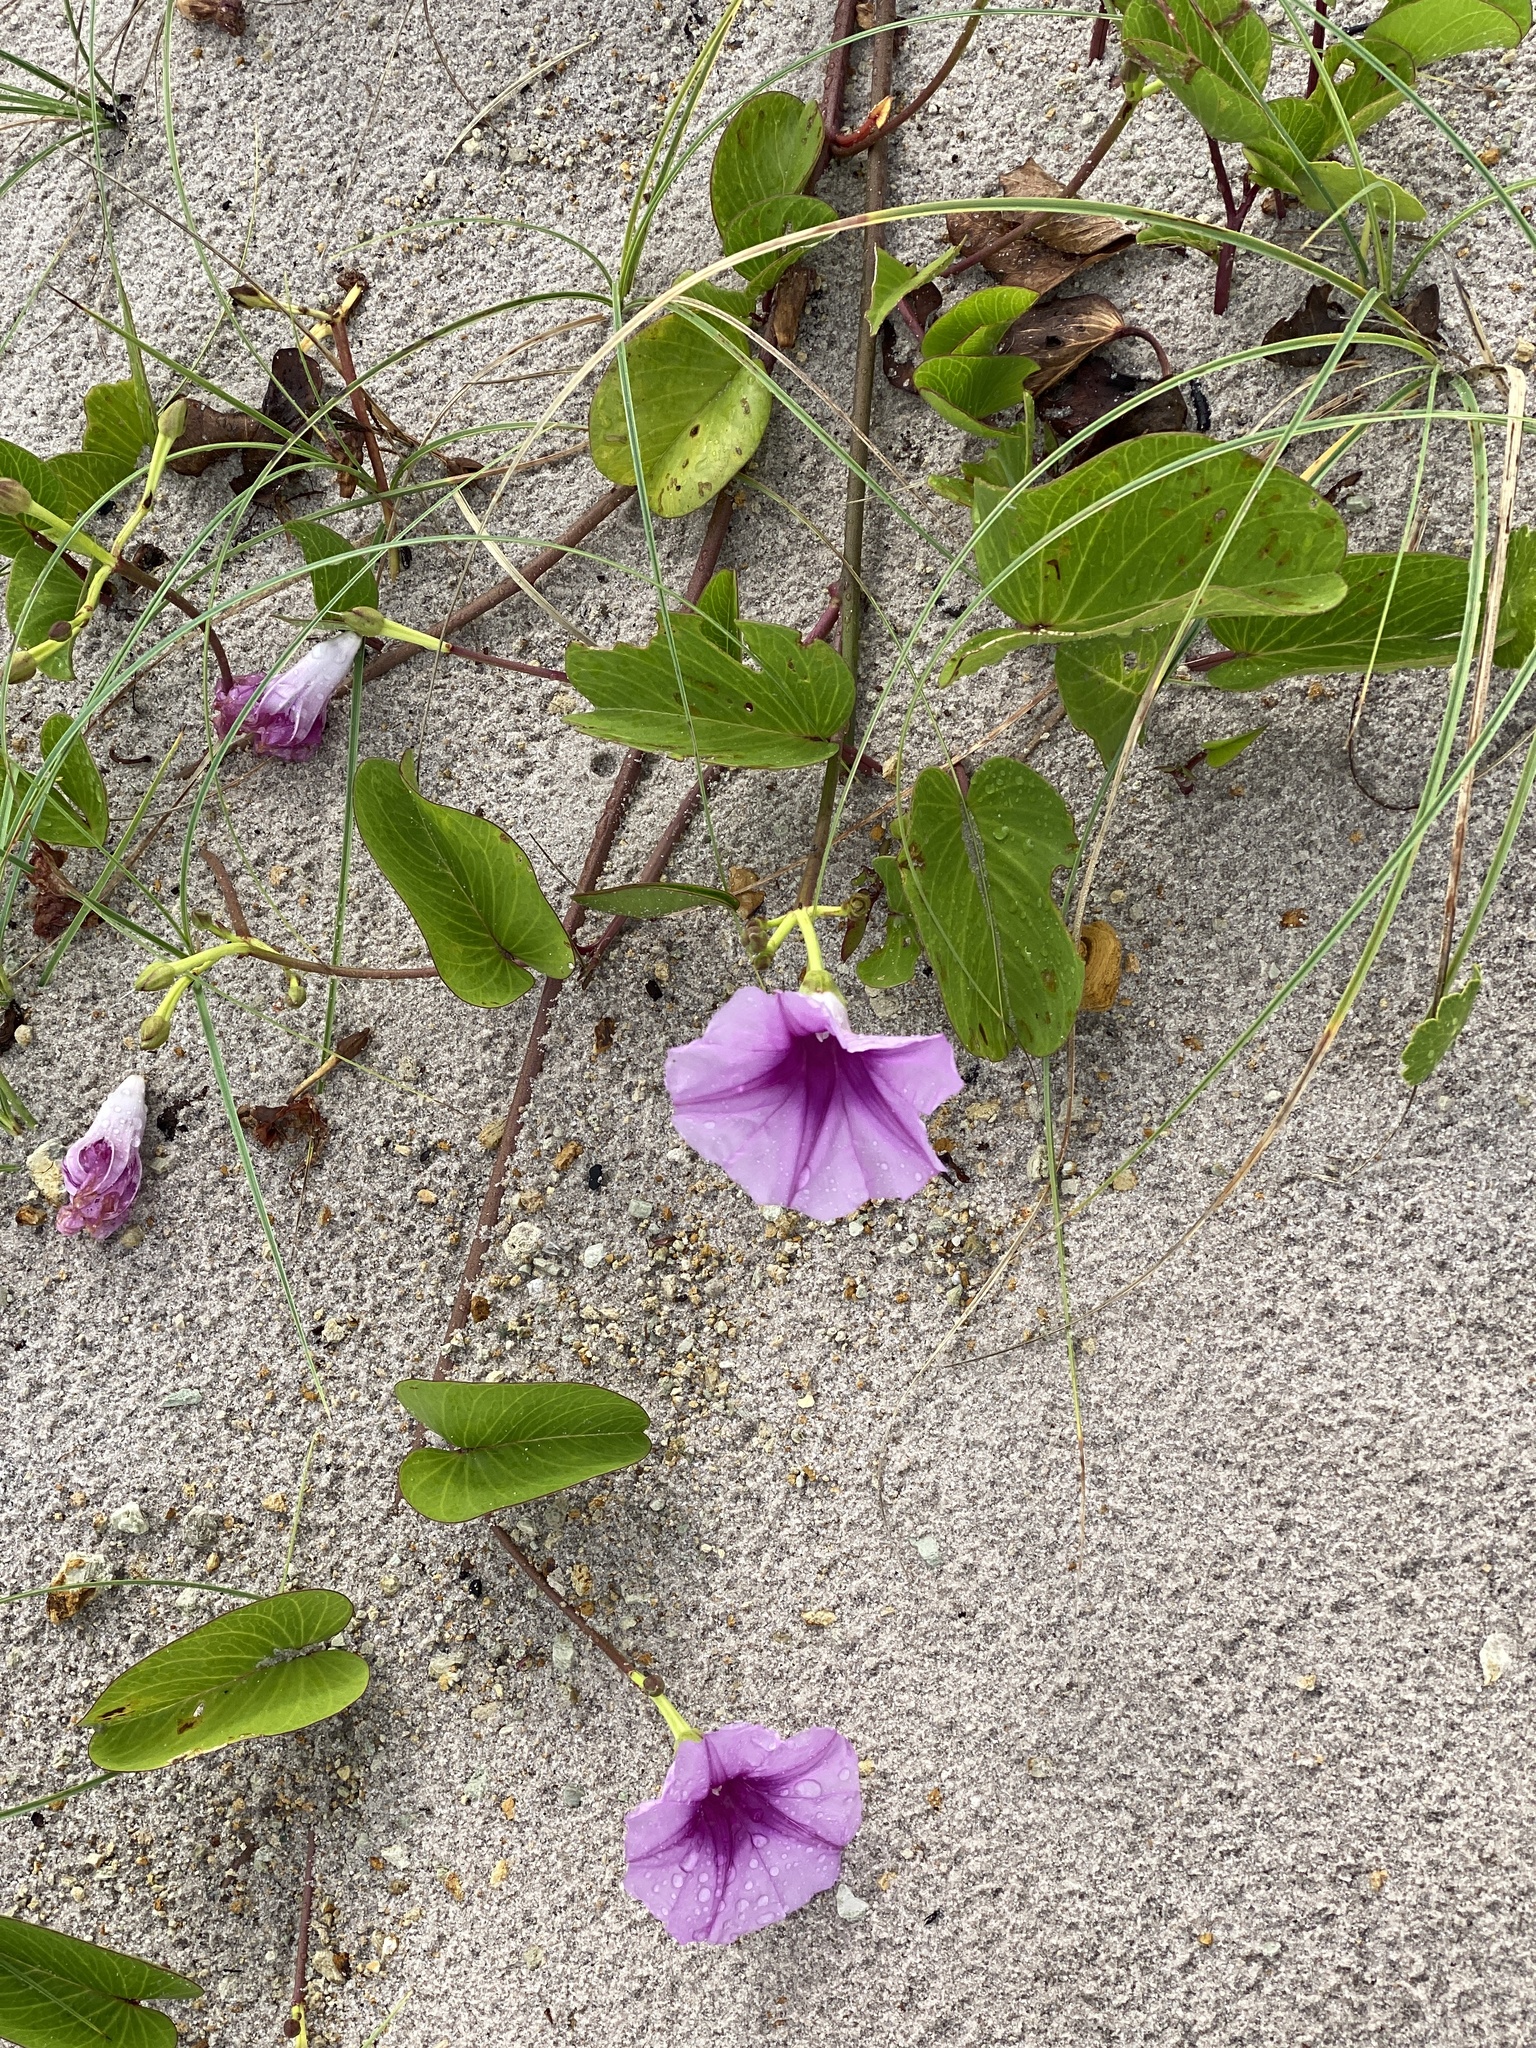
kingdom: Plantae
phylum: Tracheophyta
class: Magnoliopsida
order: Solanales
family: Convolvulaceae
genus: Ipomoea
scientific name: Ipomoea pes-caprae
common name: Beach morning glory
